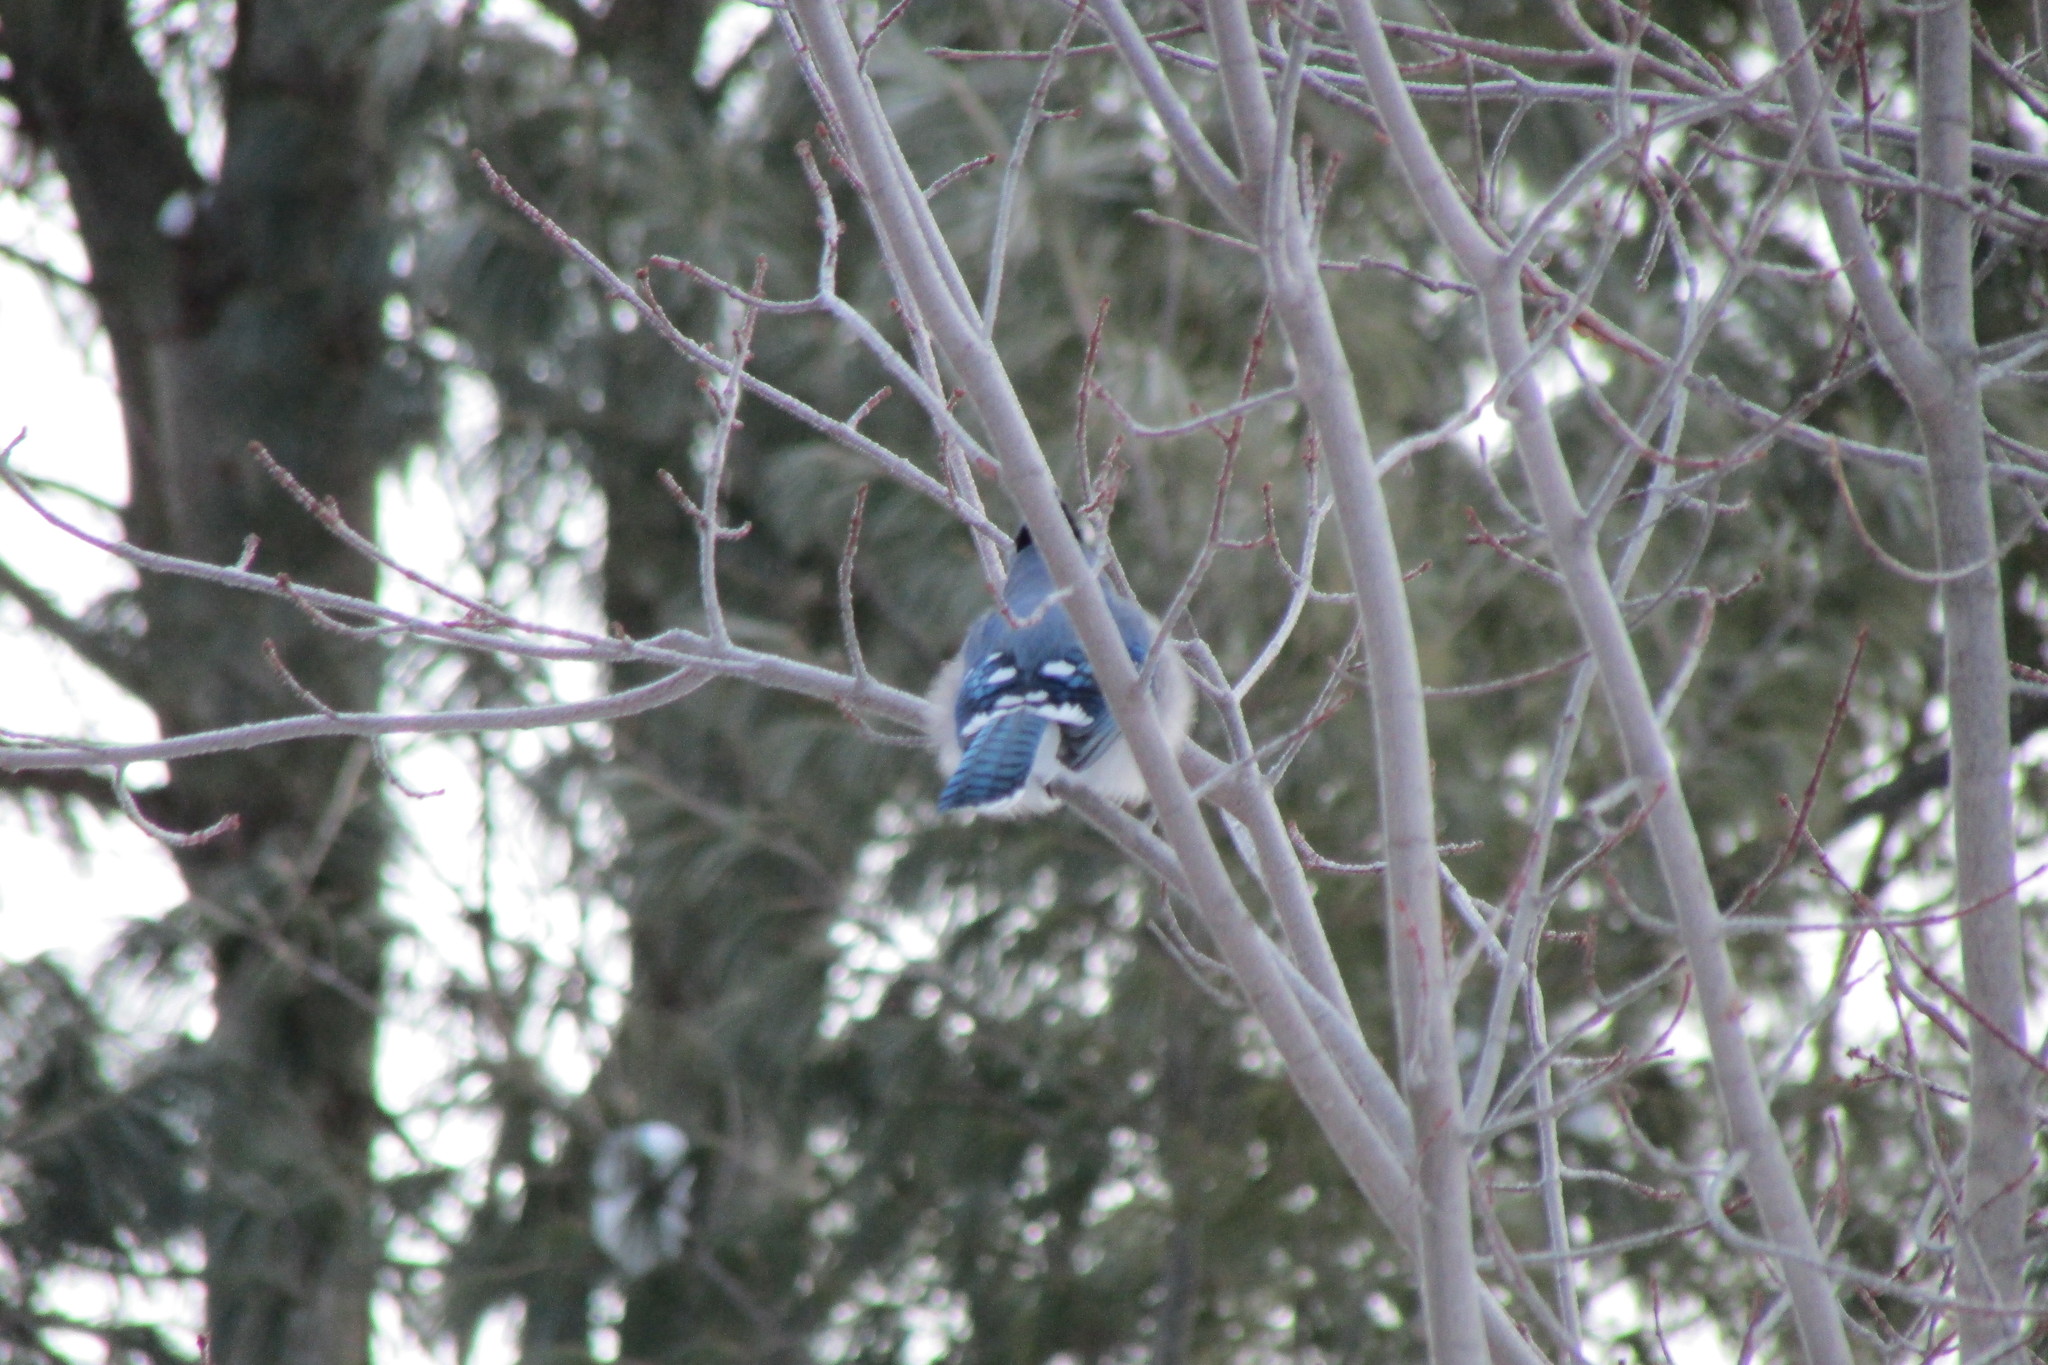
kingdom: Animalia
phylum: Chordata
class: Aves
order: Passeriformes
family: Corvidae
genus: Cyanocitta
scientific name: Cyanocitta cristata
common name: Blue jay
